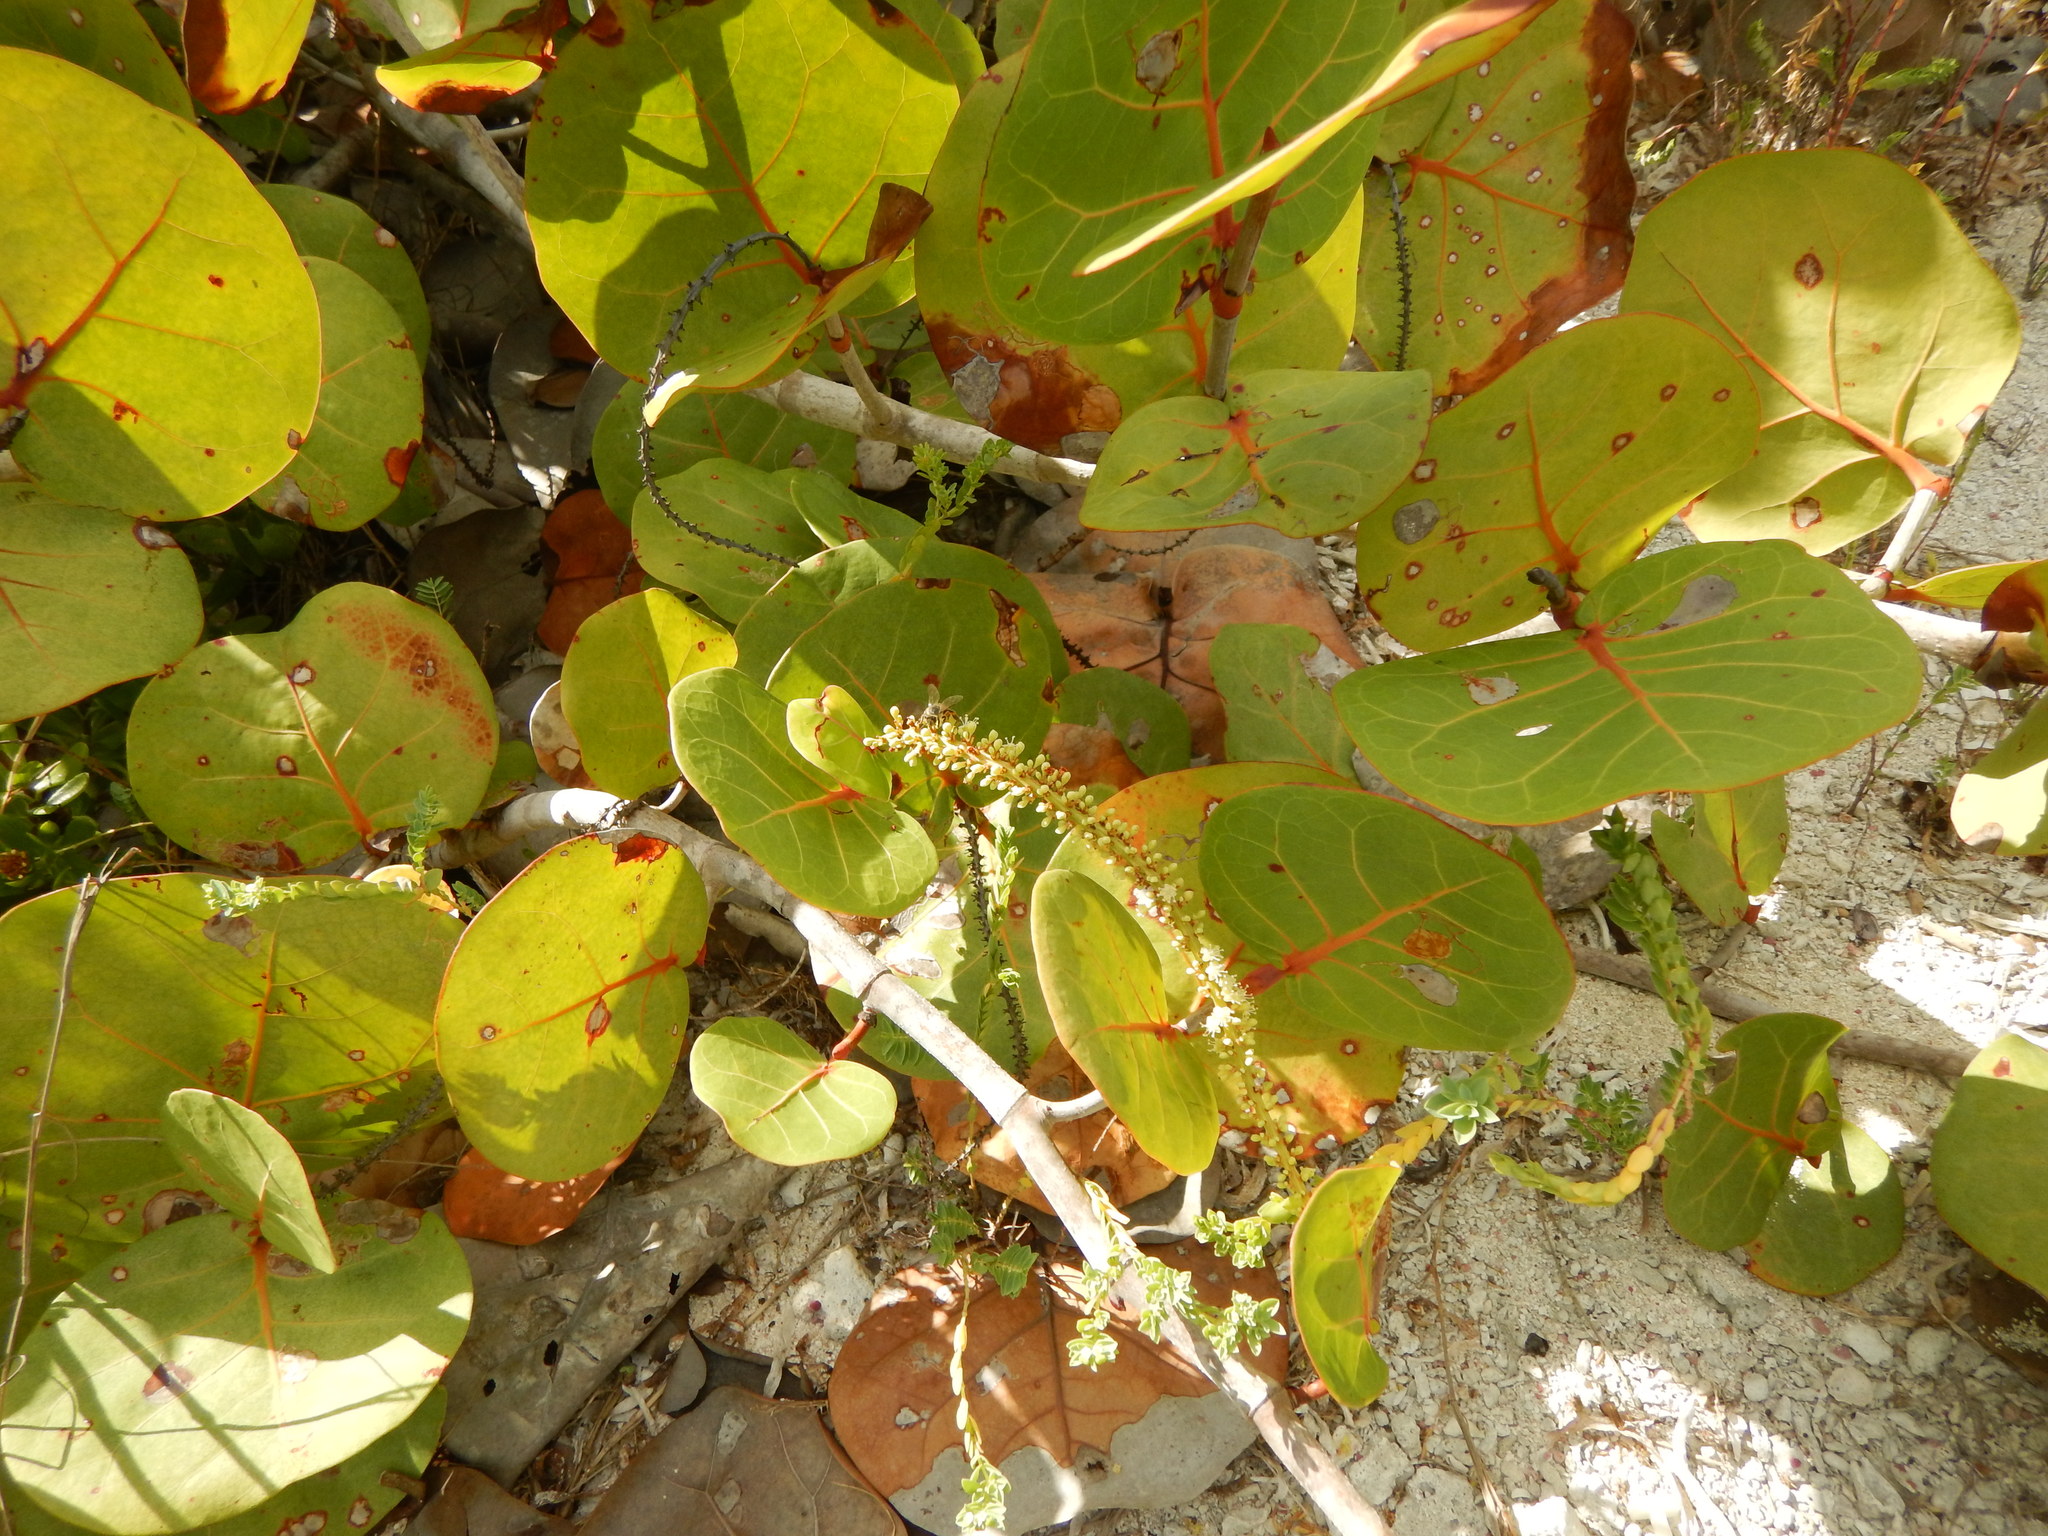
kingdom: Plantae
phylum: Tracheophyta
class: Magnoliopsida
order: Caryophyllales
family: Polygonaceae
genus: Coccoloba
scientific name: Coccoloba uvifera
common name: Seagrape
